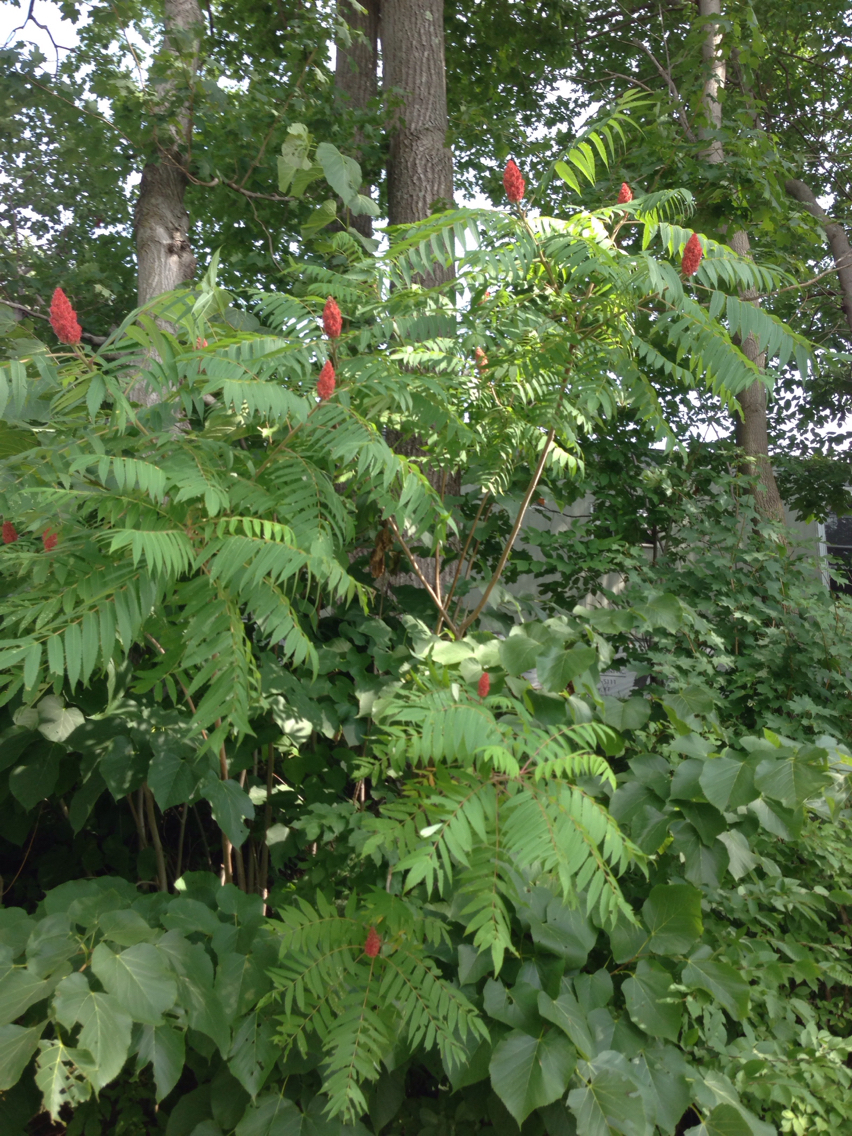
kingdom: Plantae
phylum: Tracheophyta
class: Magnoliopsida
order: Sapindales
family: Anacardiaceae
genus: Rhus
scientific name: Rhus typhina
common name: Staghorn sumac
